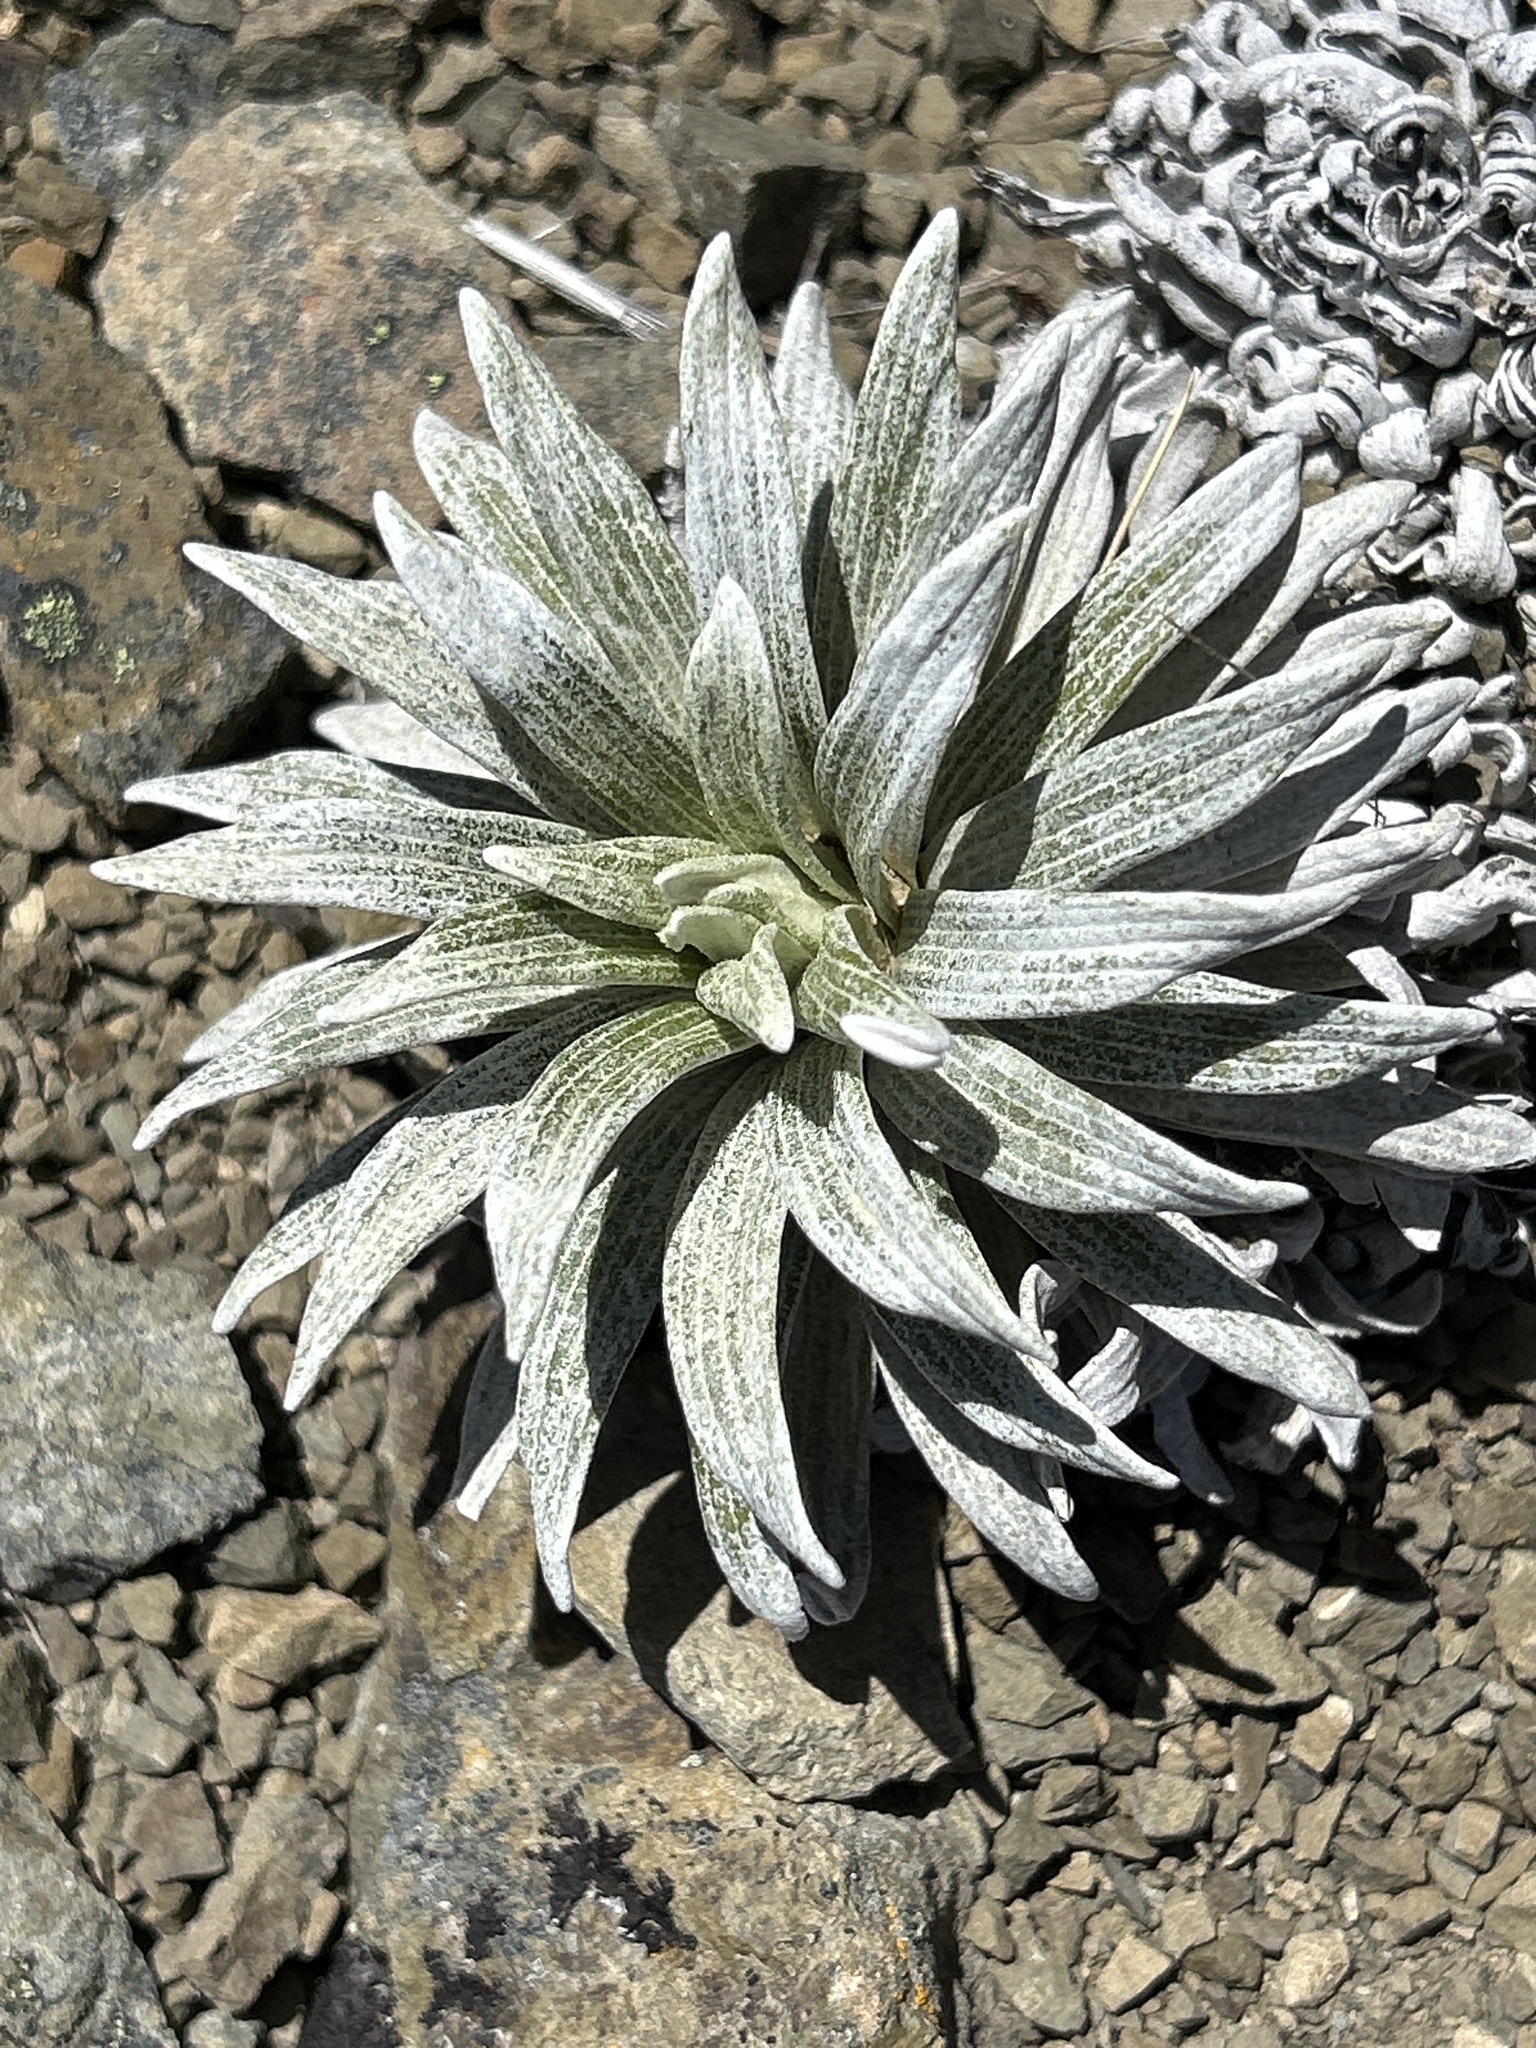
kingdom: Plantae
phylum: Tracheophyta
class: Magnoliopsida
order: Asterales
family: Asteraceae
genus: Celmisia
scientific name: Celmisia viscosa
